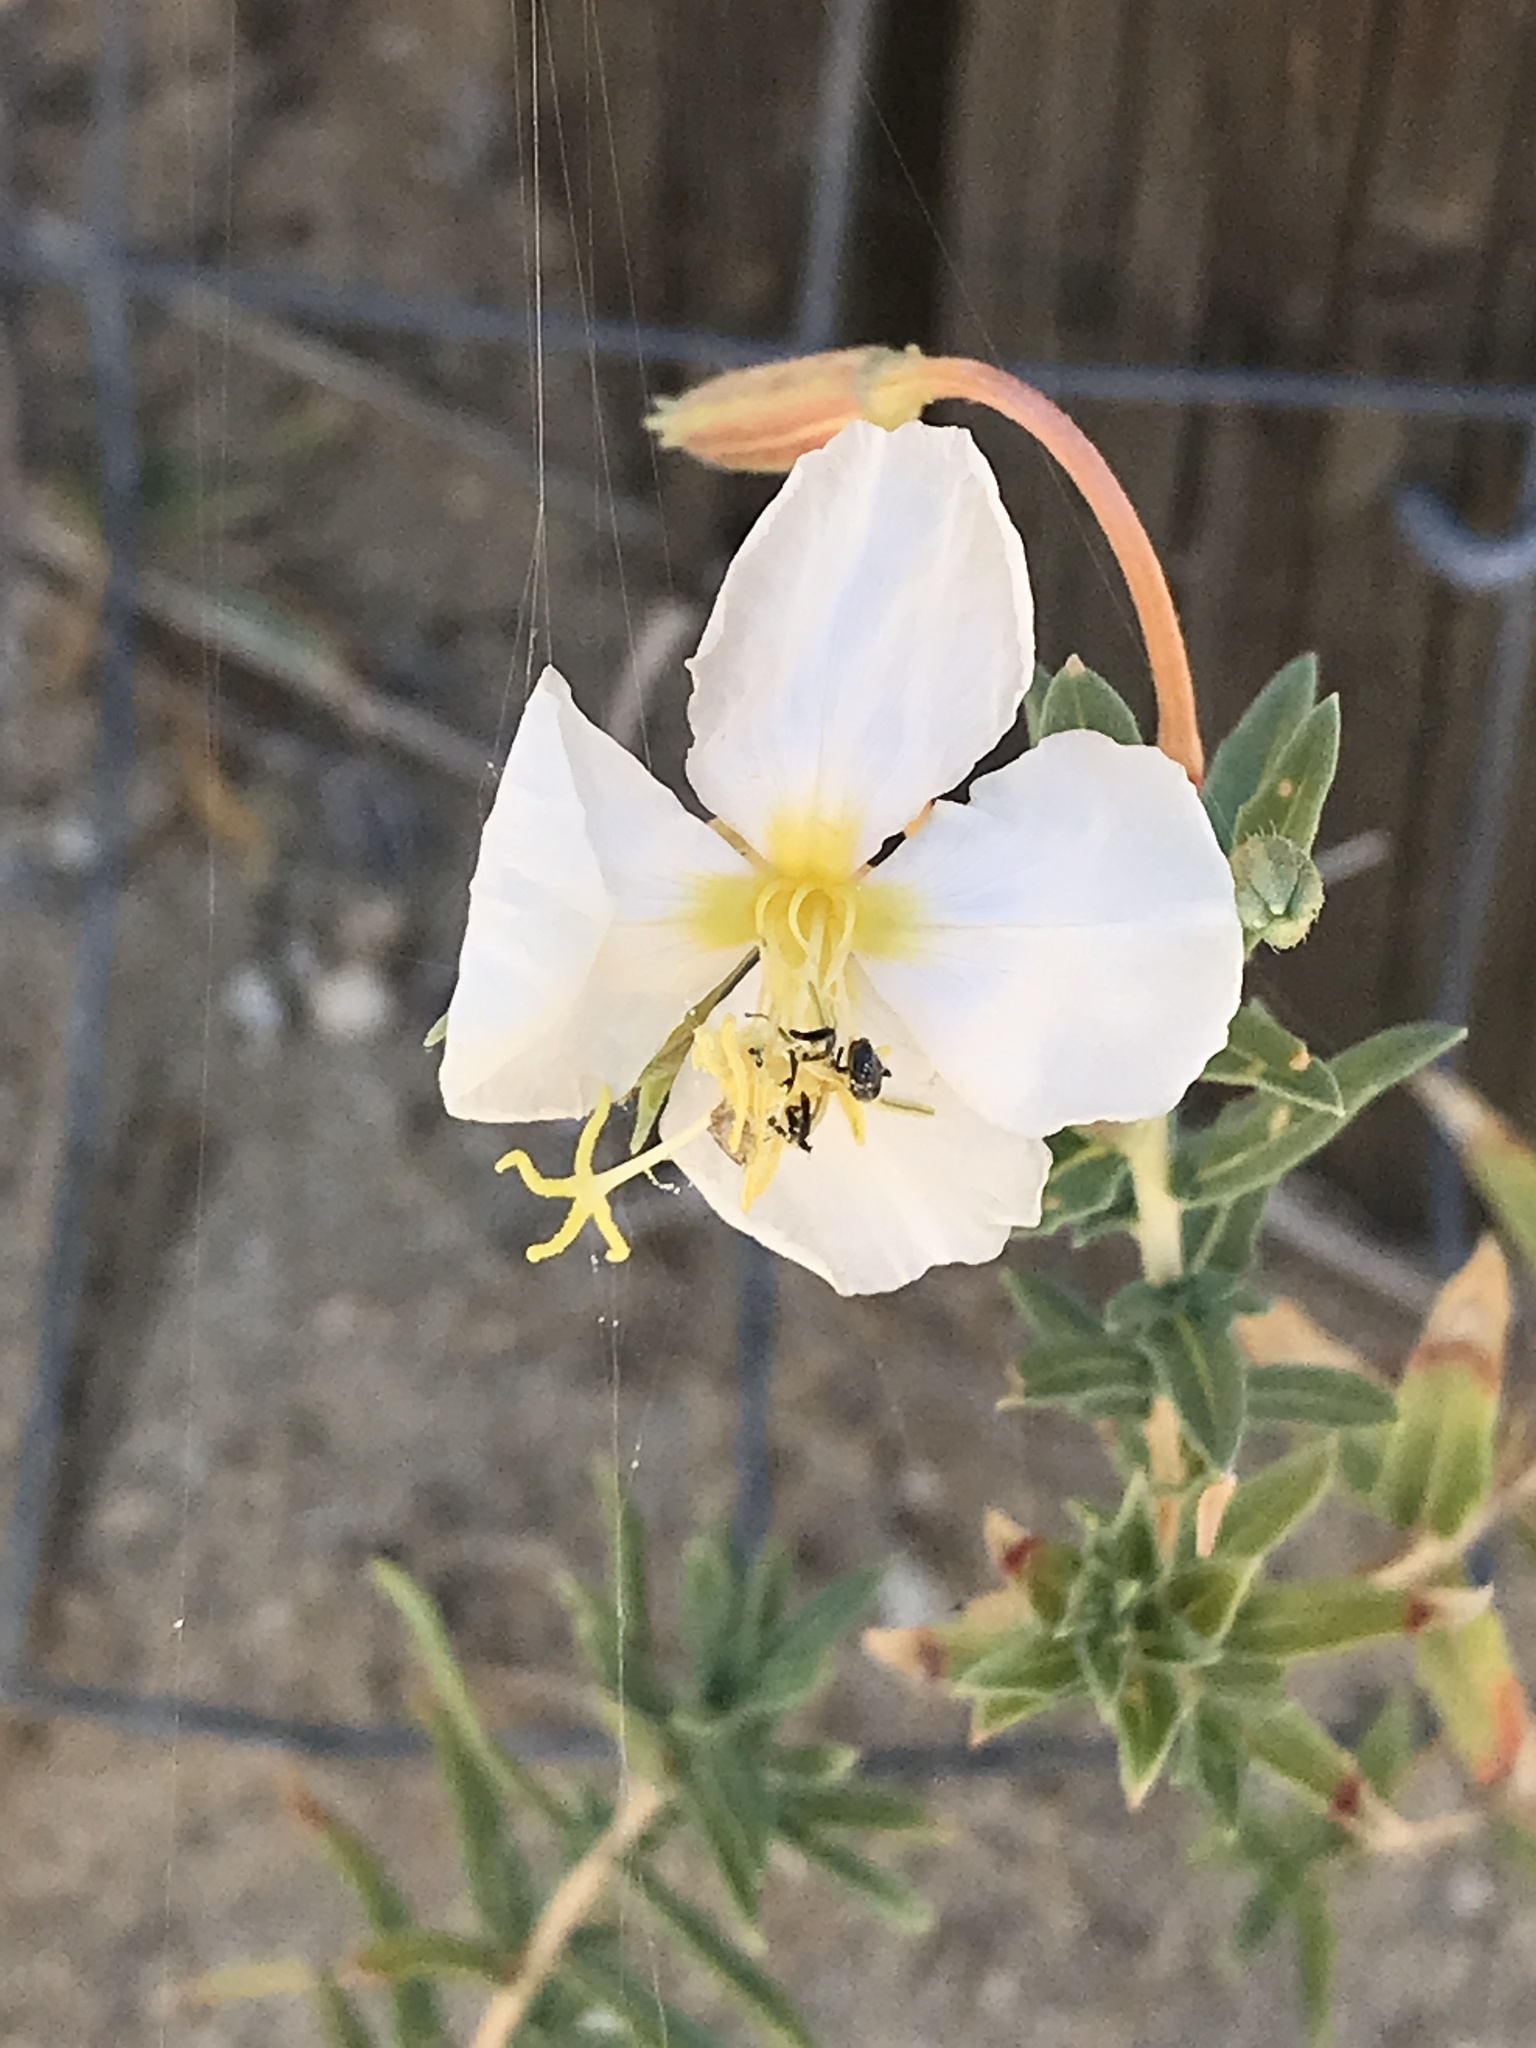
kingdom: Plantae
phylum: Tracheophyta
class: Magnoliopsida
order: Myrtales
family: Onagraceae
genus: Oenothera
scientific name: Oenothera pallida
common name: Pale evening-primrose
